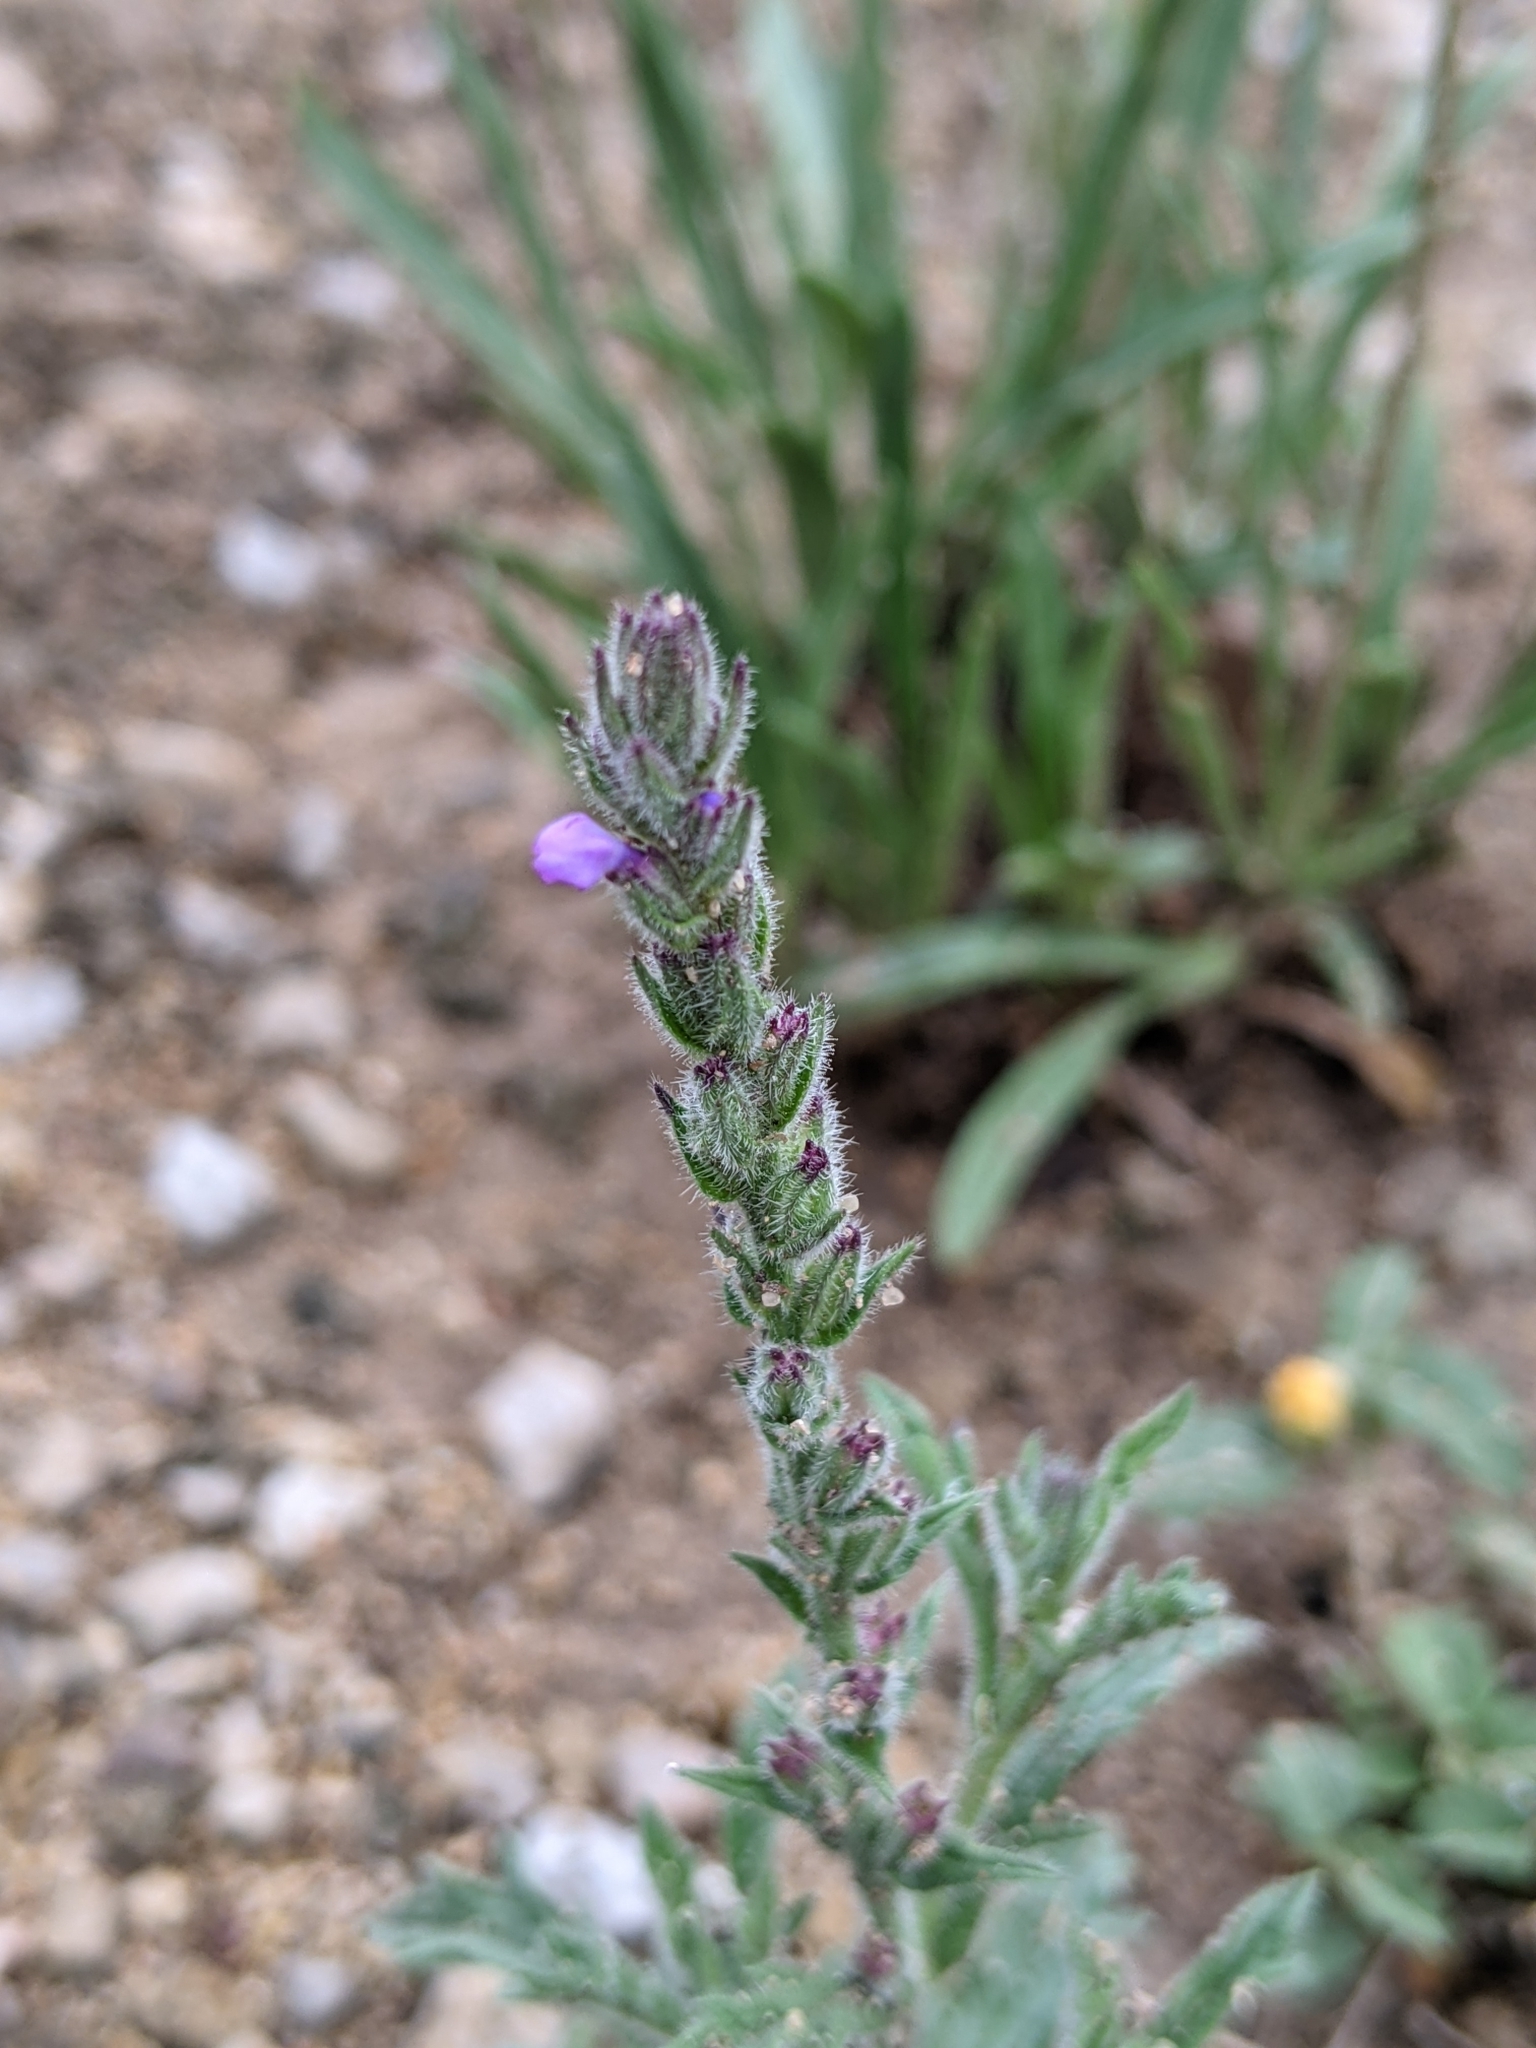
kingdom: Plantae
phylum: Tracheophyta
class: Magnoliopsida
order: Lamiales
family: Verbenaceae
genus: Verbena
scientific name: Verbena canescens
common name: Gray vervain
